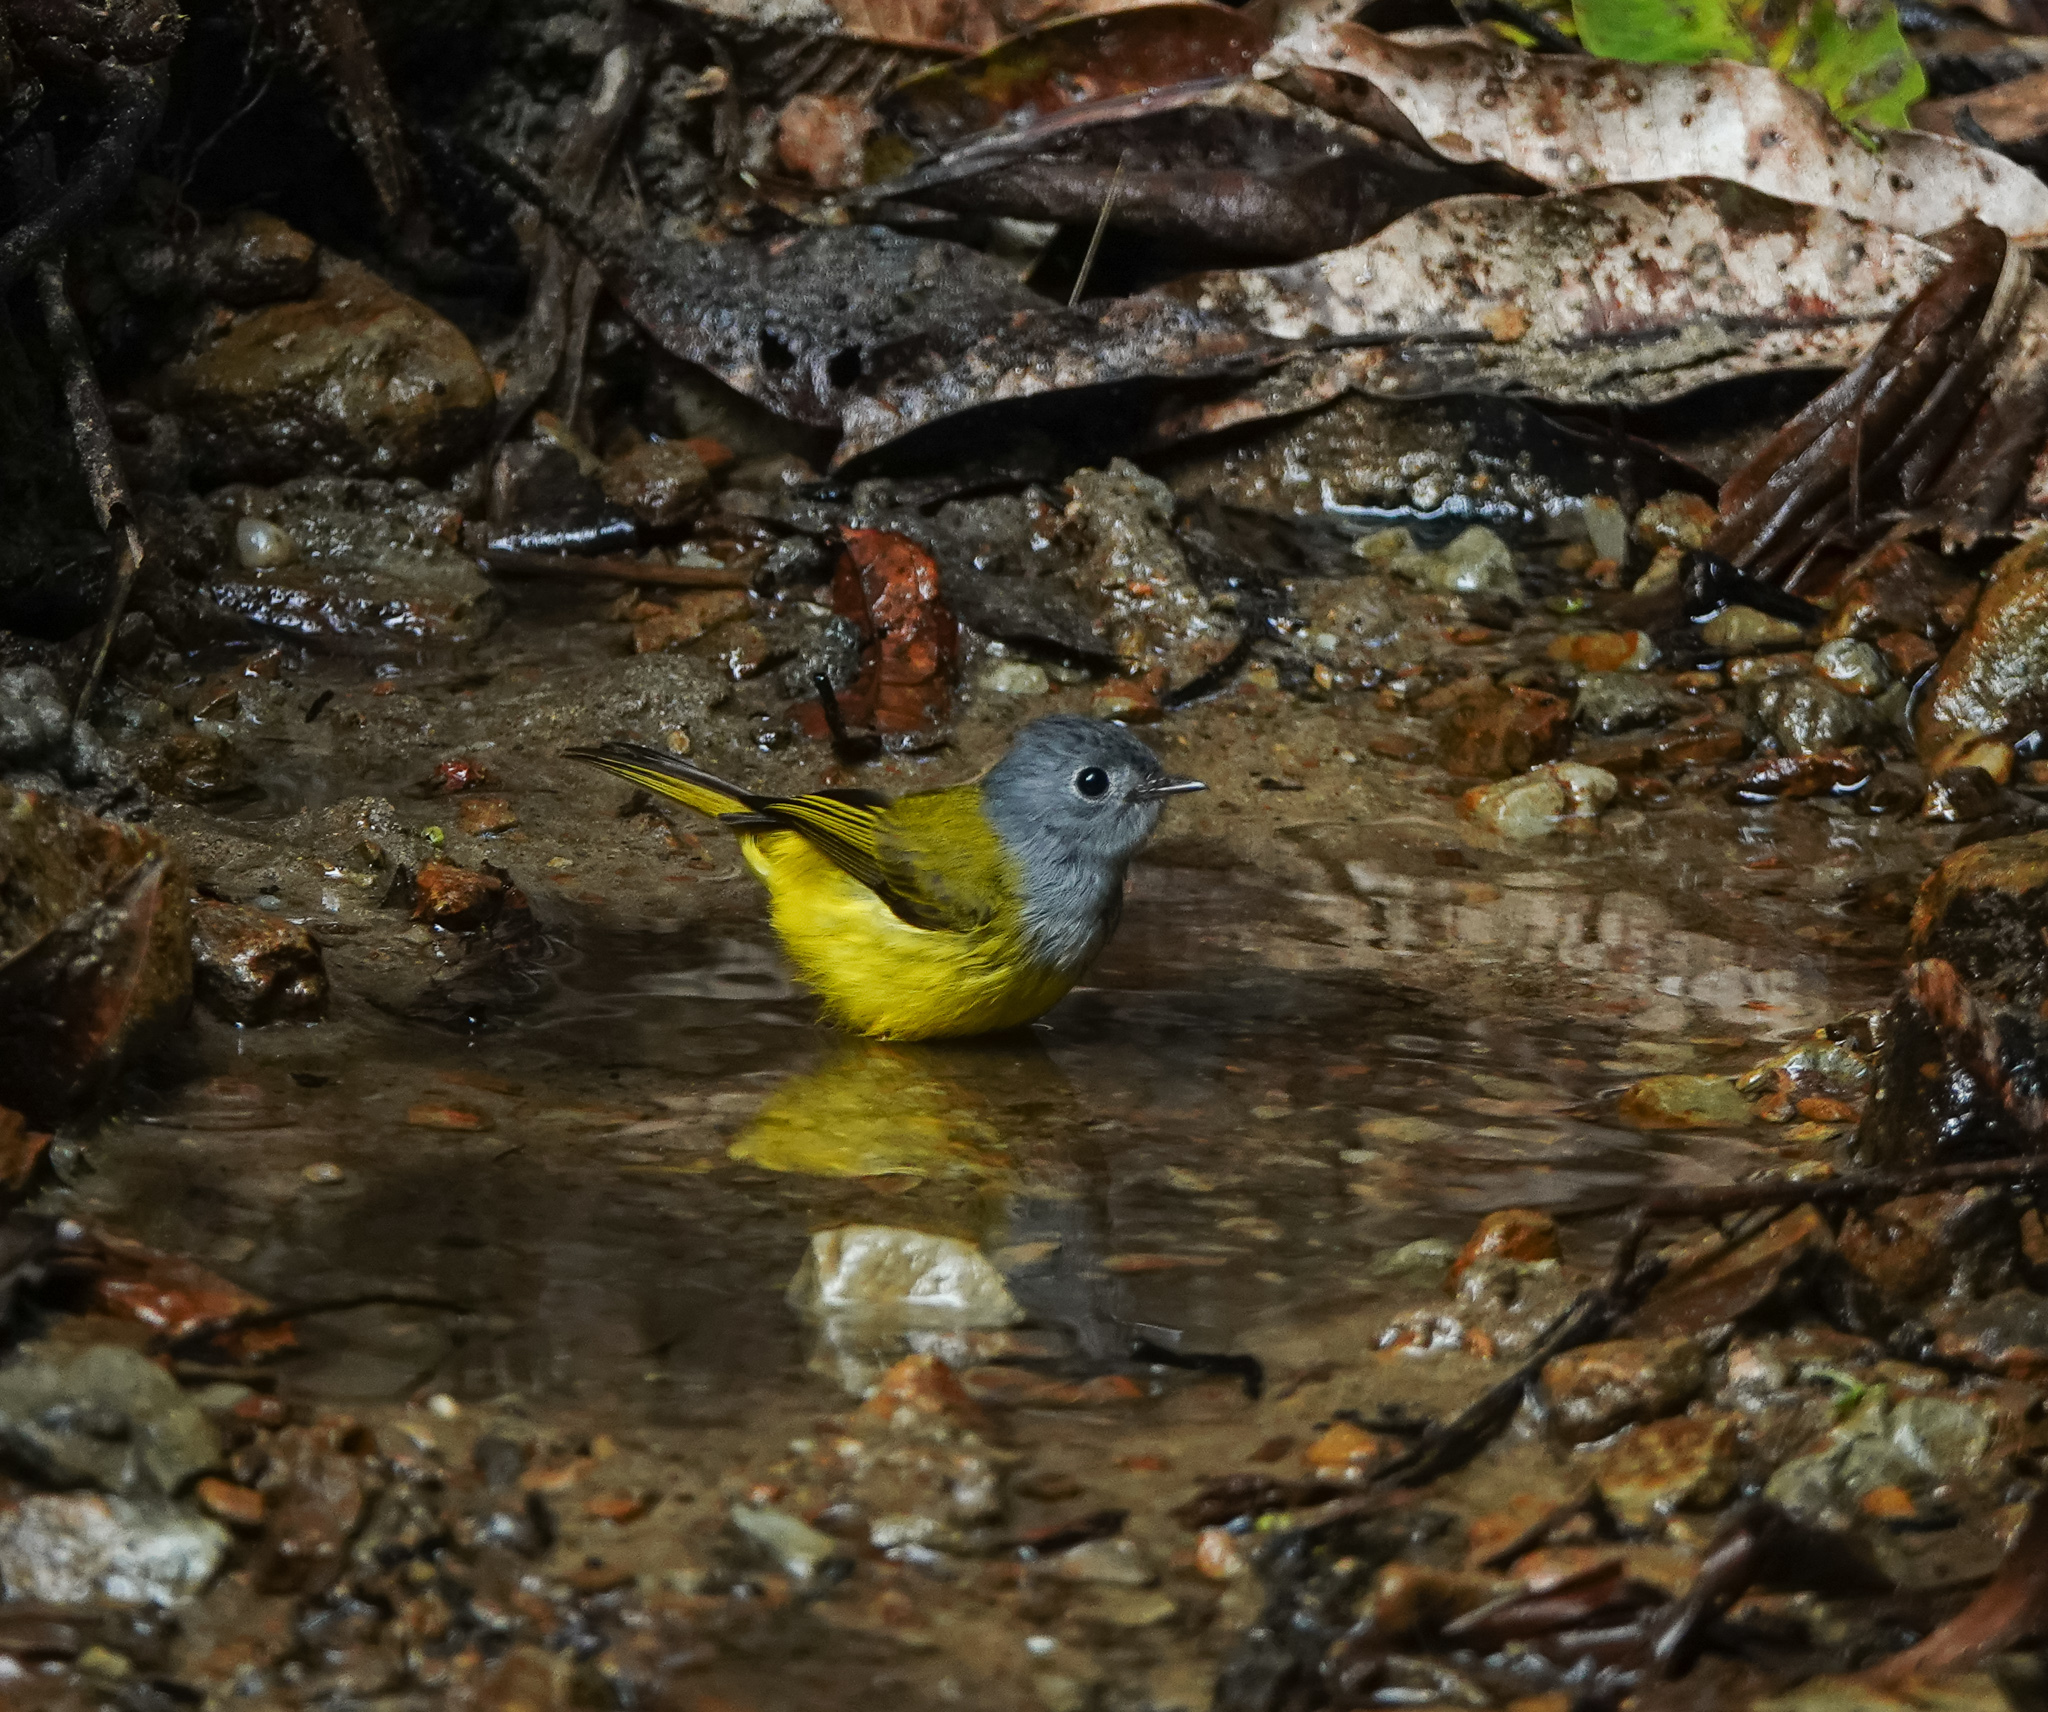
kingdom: Animalia
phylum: Chordata
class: Aves
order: Passeriformes
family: Stenostiridae
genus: Culicicapa
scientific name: Culicicapa ceylonensis
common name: Grey-headed canary-flycatcher
